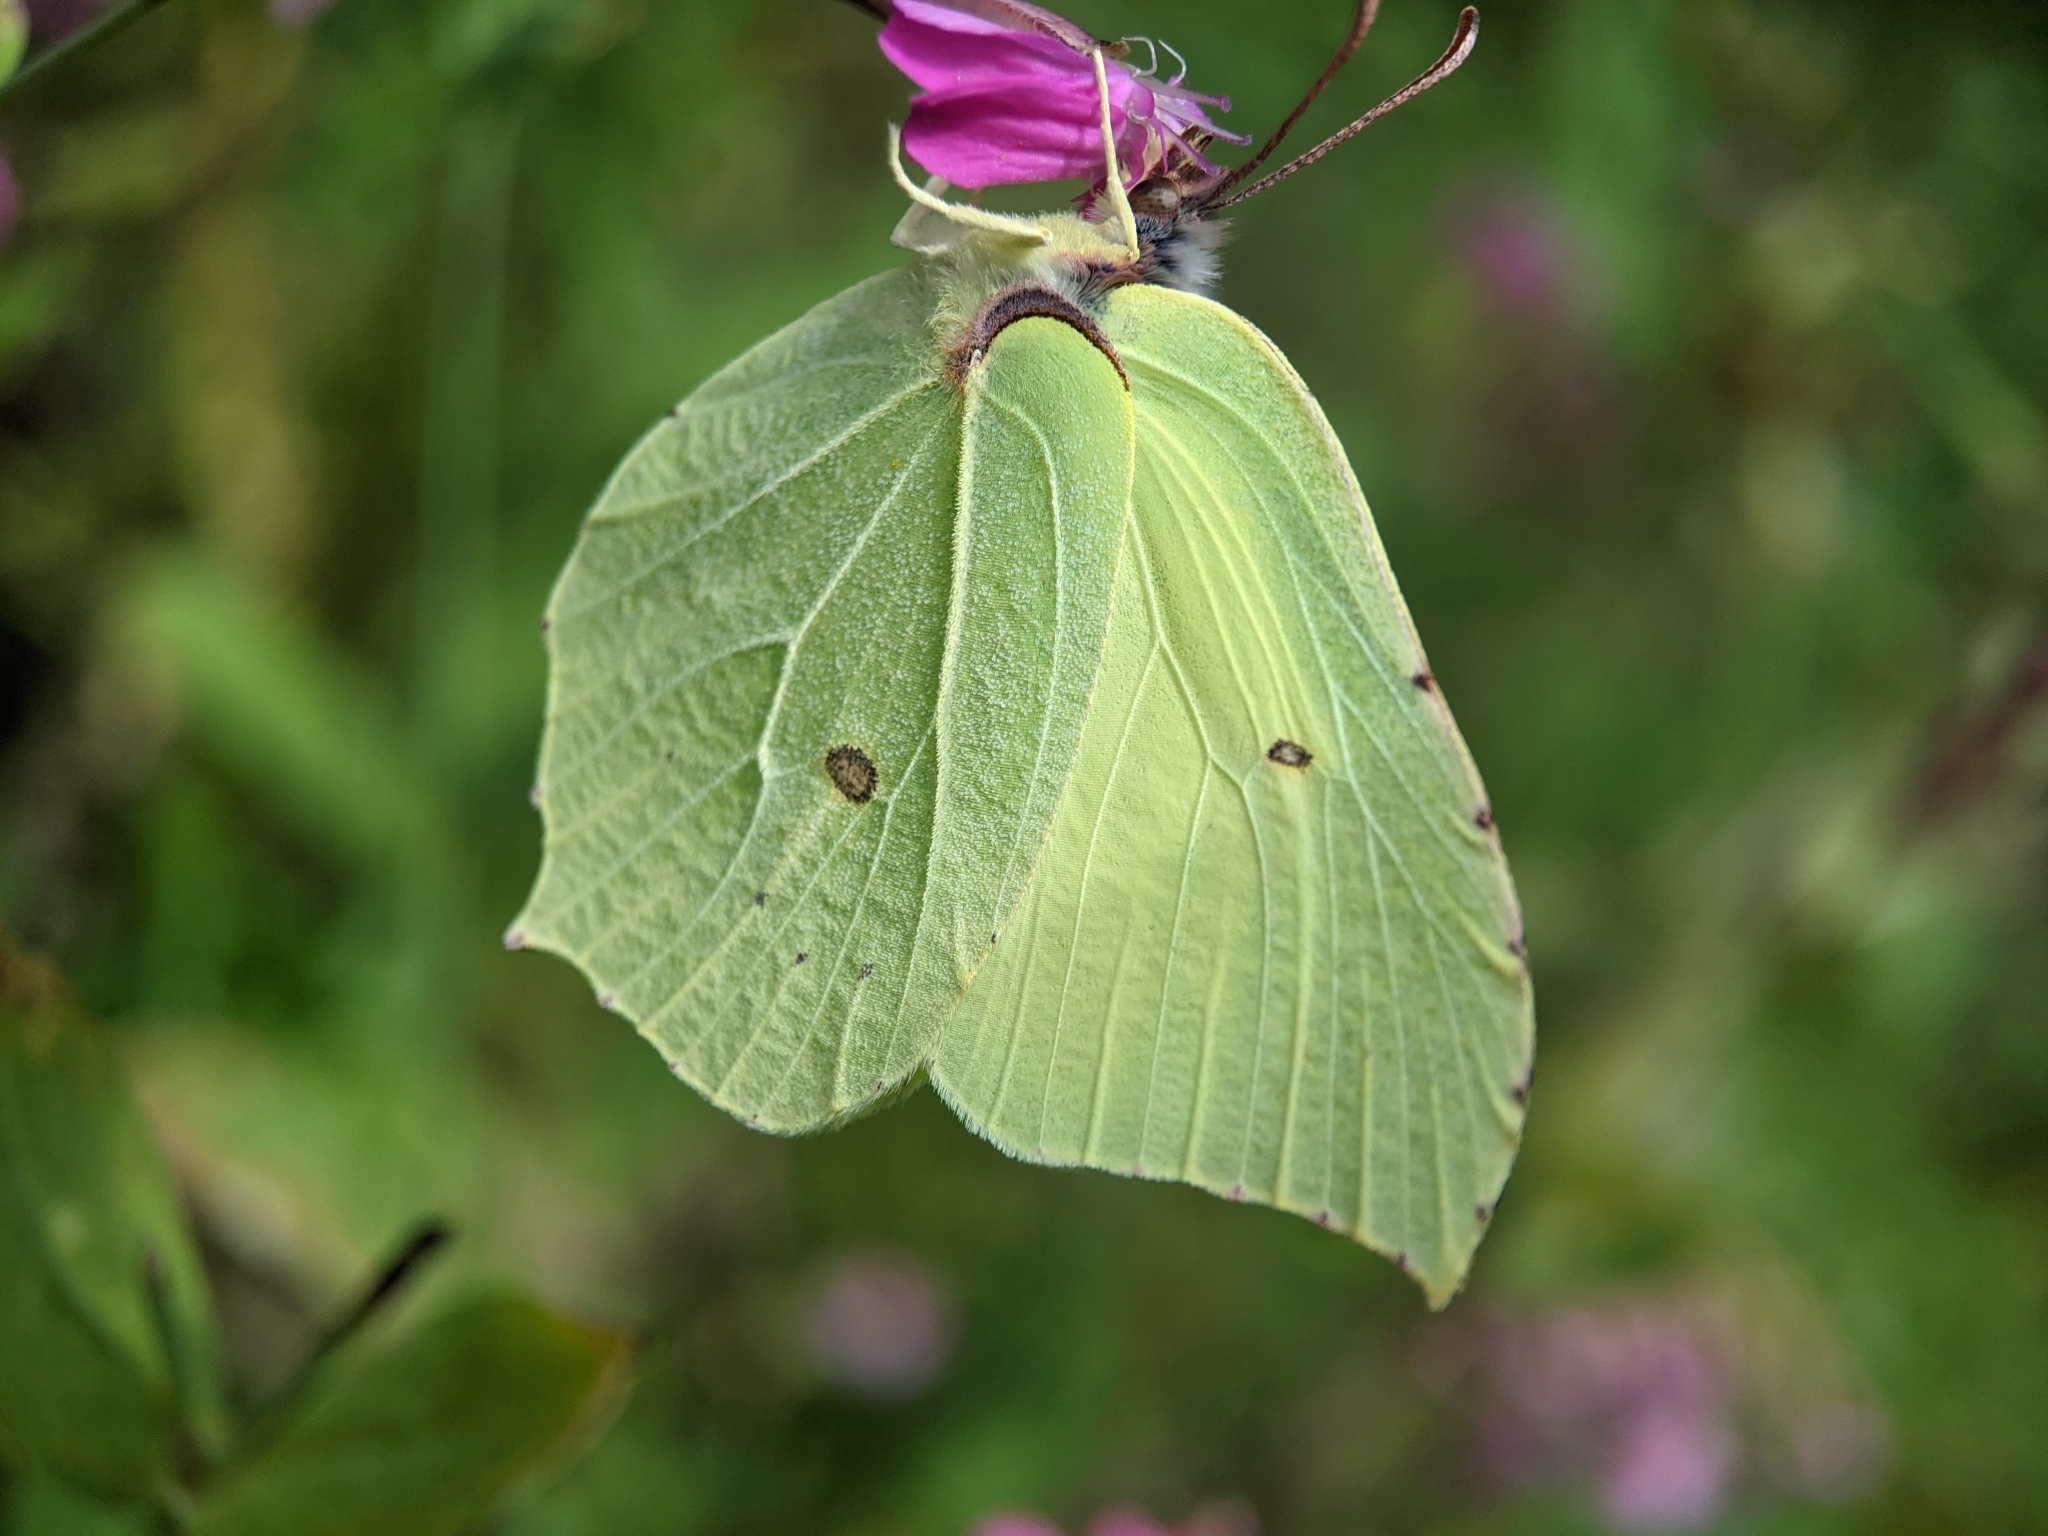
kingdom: Animalia
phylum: Arthropoda
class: Insecta
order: Lepidoptera
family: Pieridae
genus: Gonepteryx
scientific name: Gonepteryx rhamni
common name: Brimstone
